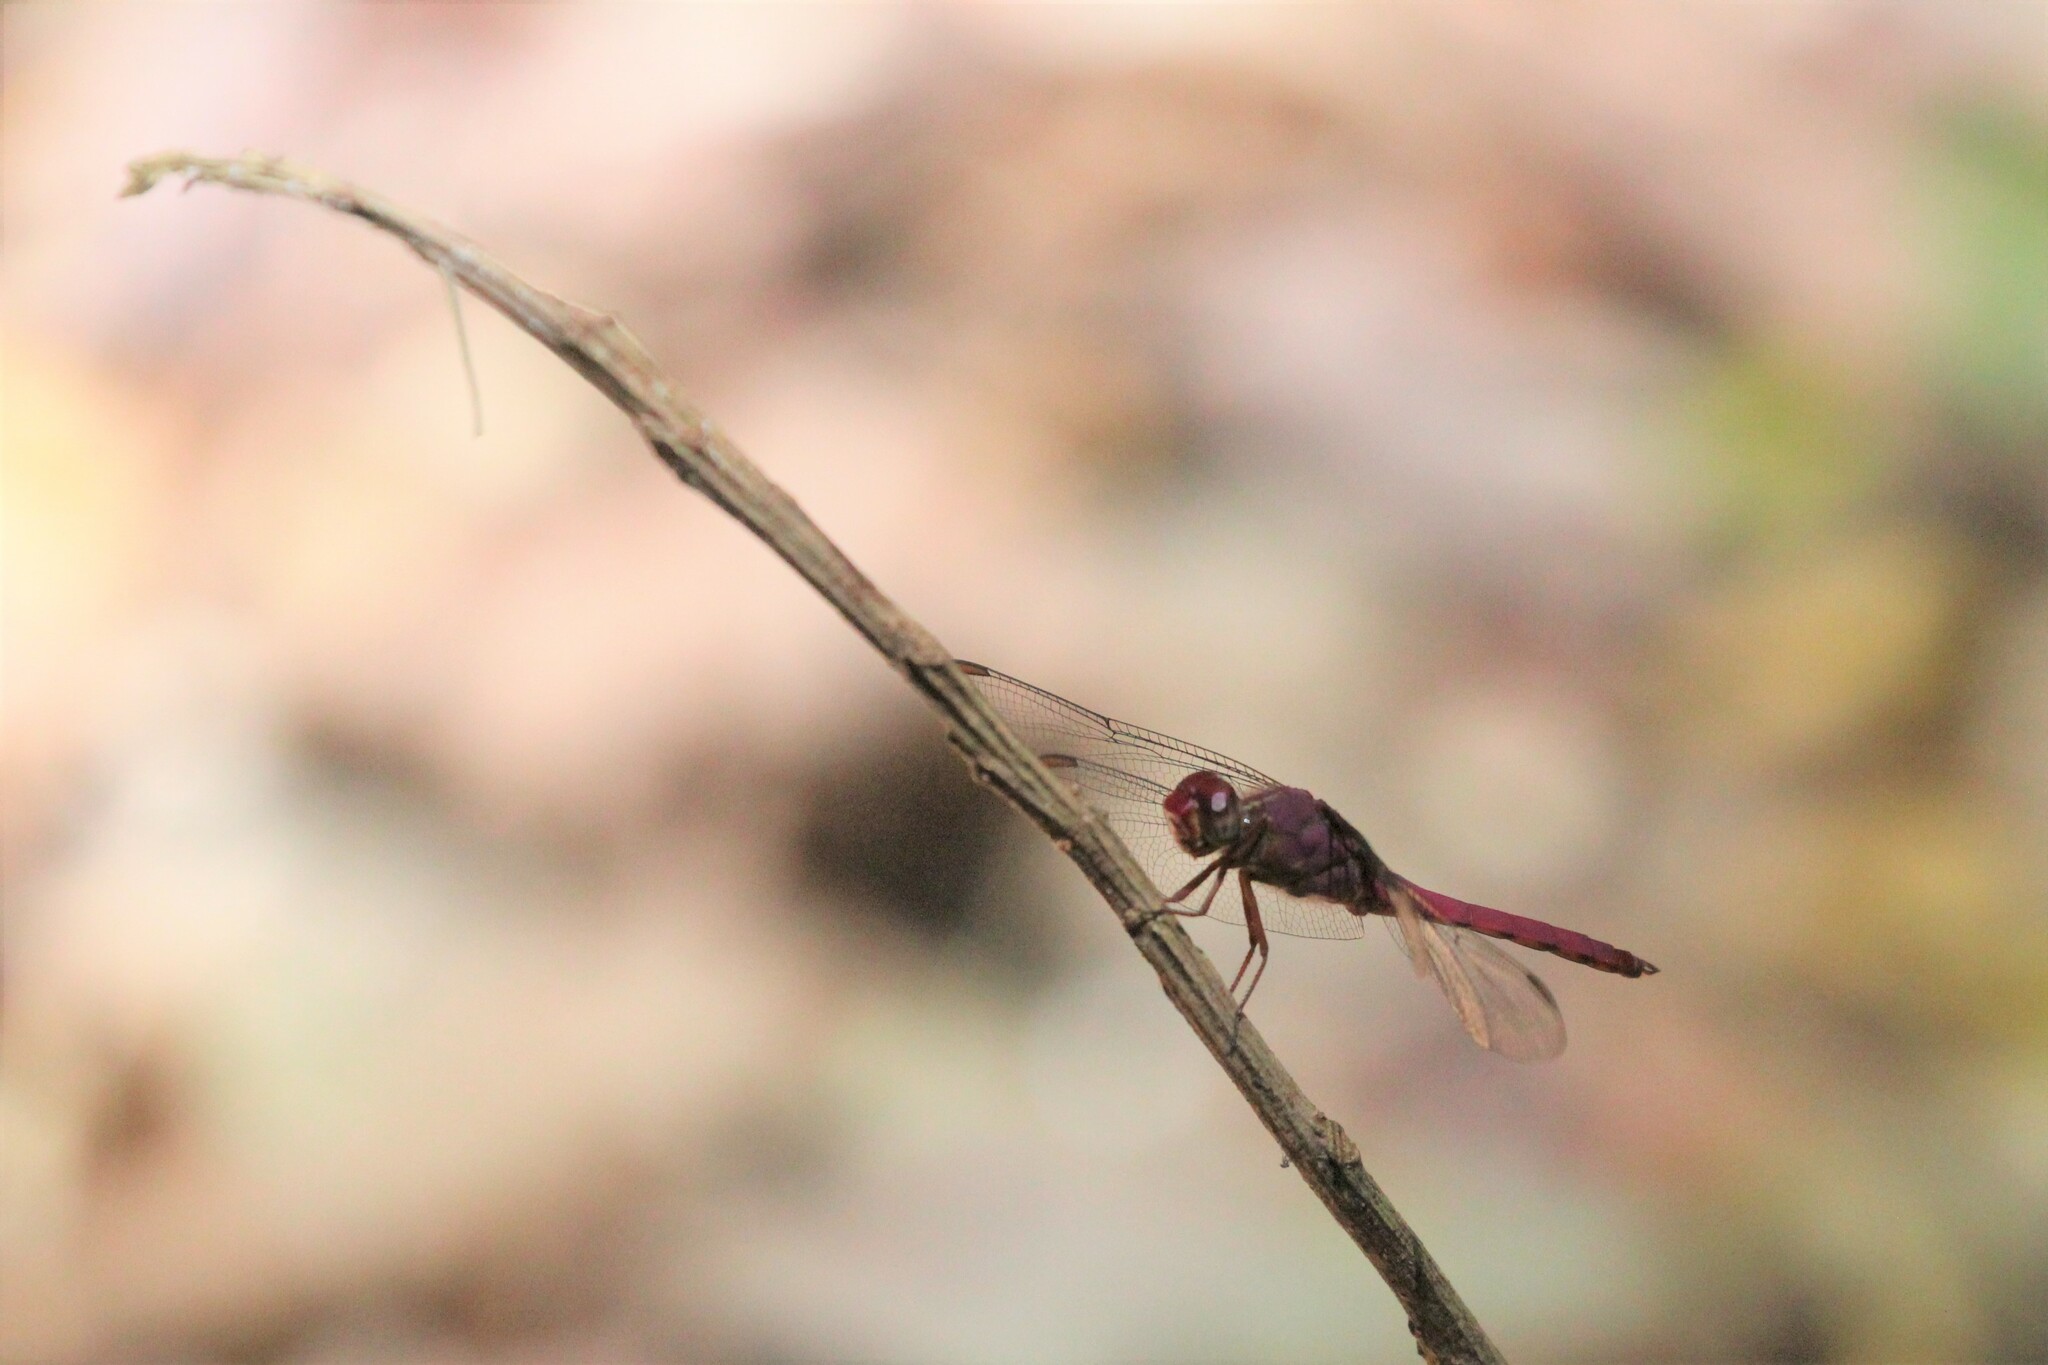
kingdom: Animalia
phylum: Arthropoda
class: Insecta
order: Odonata
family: Libellulidae
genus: Orthemis
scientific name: Orthemis discolor
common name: Carmine skimmer
